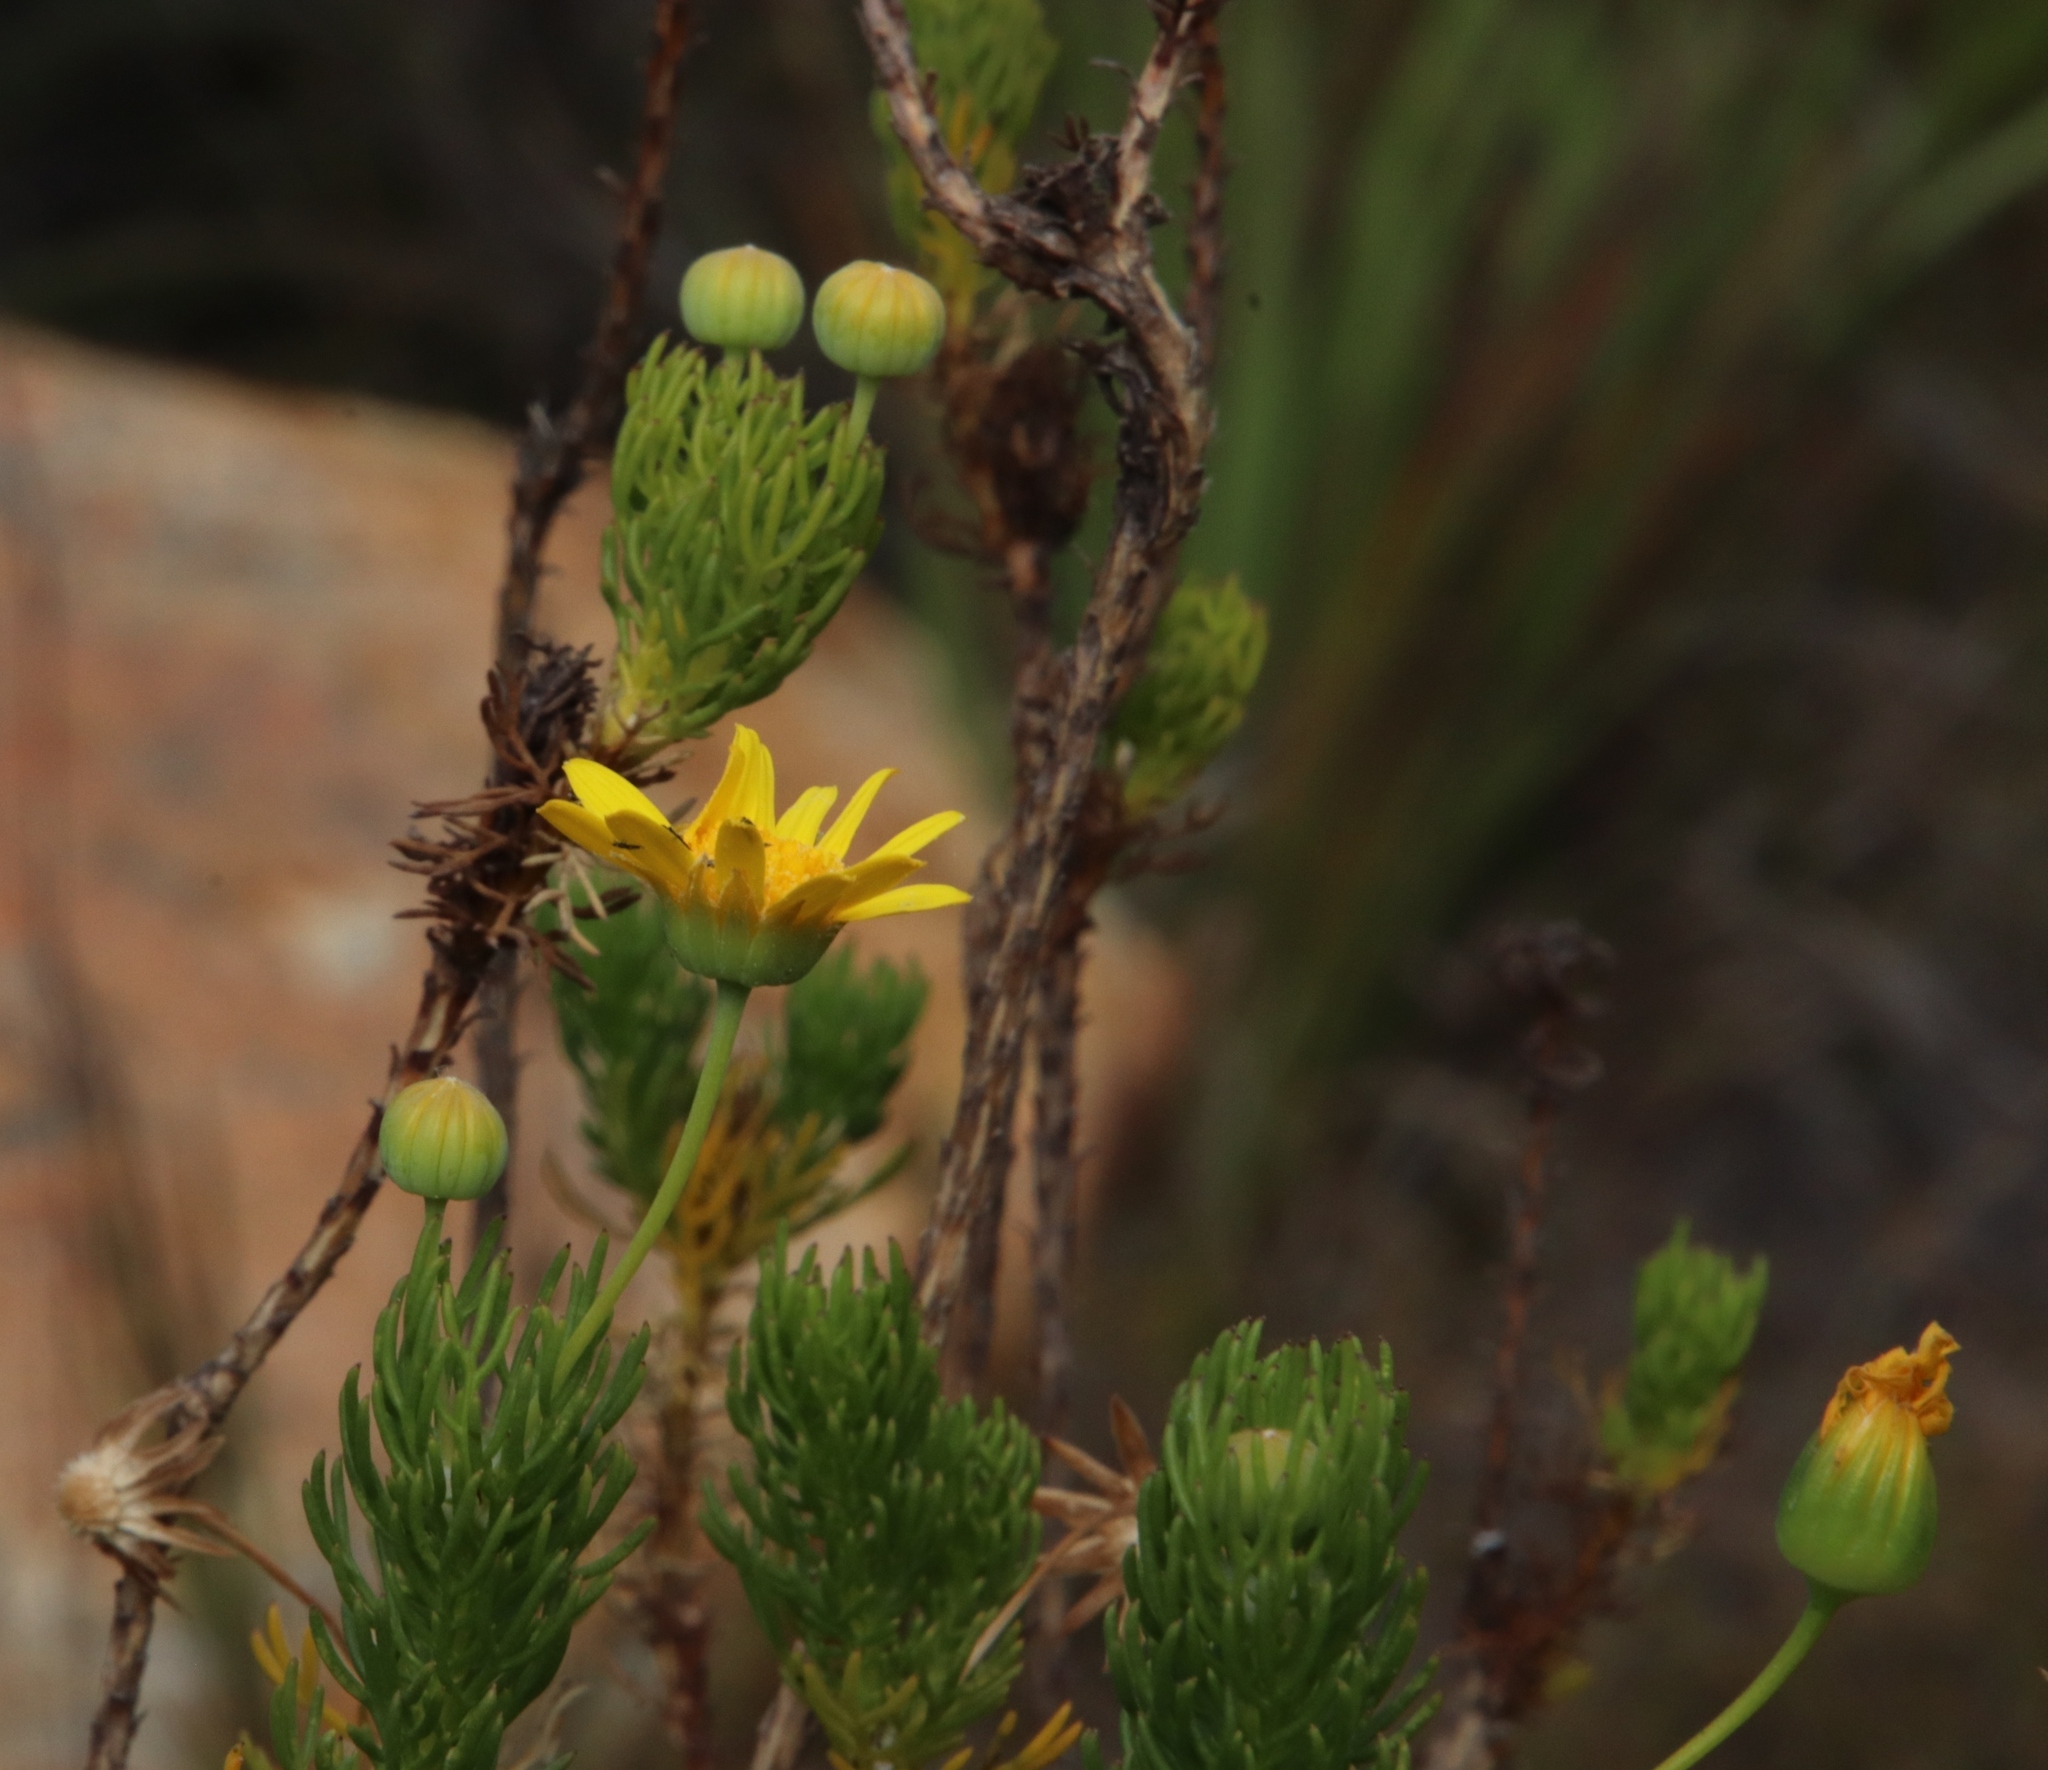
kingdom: Plantae
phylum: Tracheophyta
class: Magnoliopsida
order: Asterales
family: Asteraceae
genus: Euryops
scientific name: Euryops abrotanifolius
